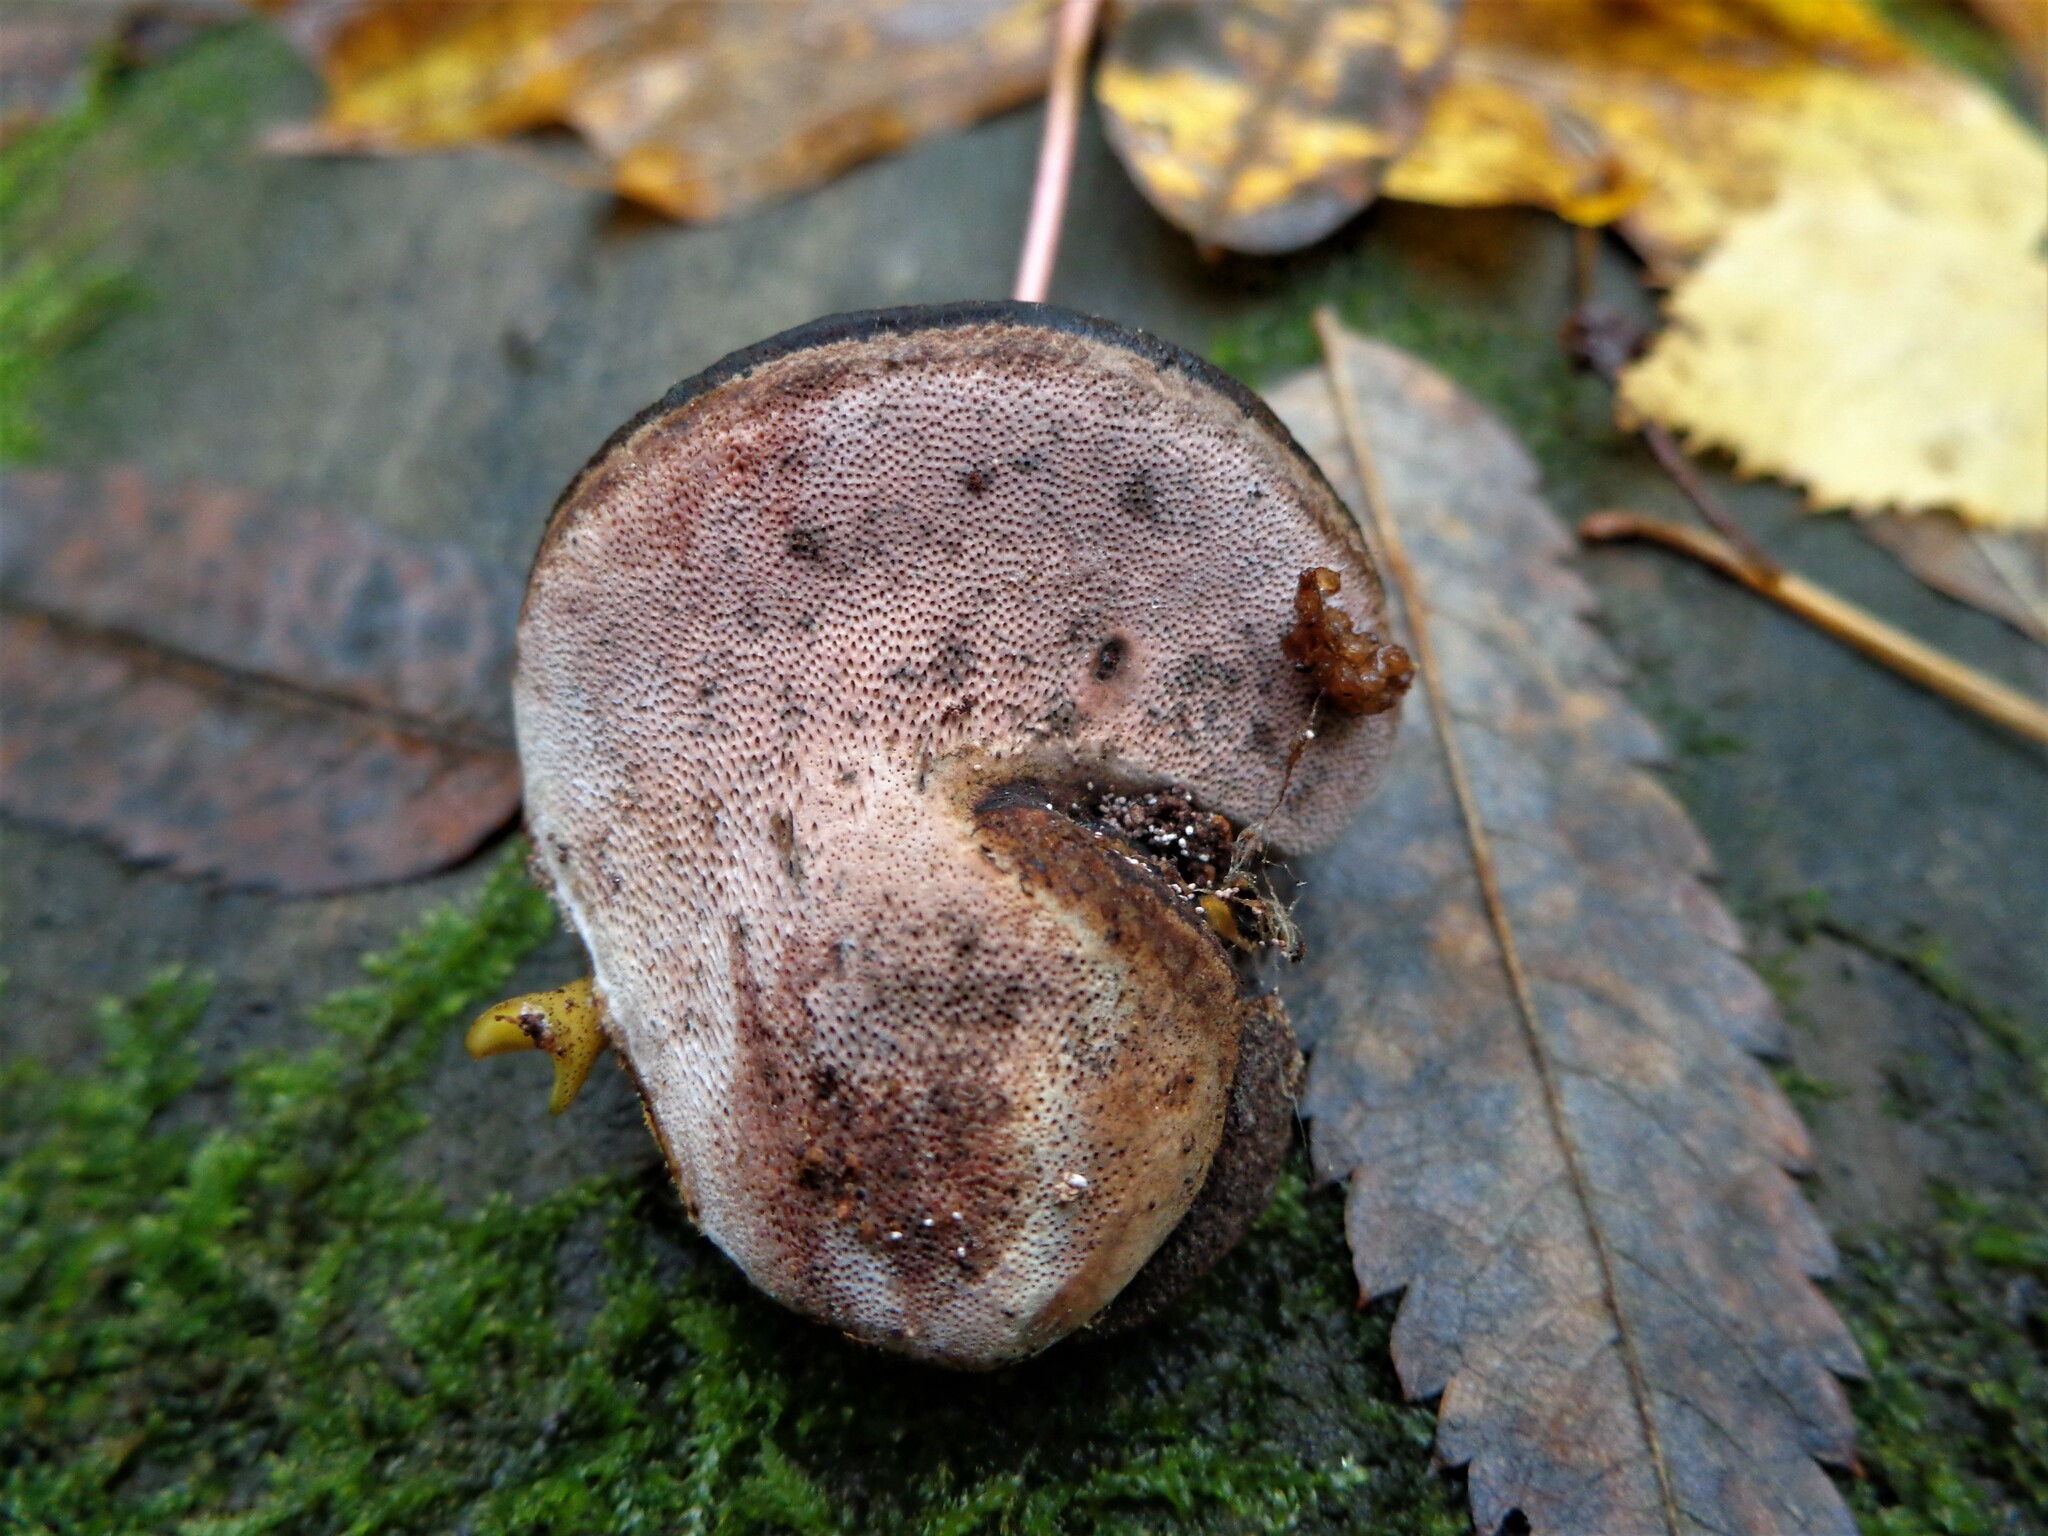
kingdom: Fungi
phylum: Basidiomycota
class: Agaricomycetes
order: Polyporales
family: Fomitopsidaceae
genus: Rhodofomes
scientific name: Rhodofomes roseus
